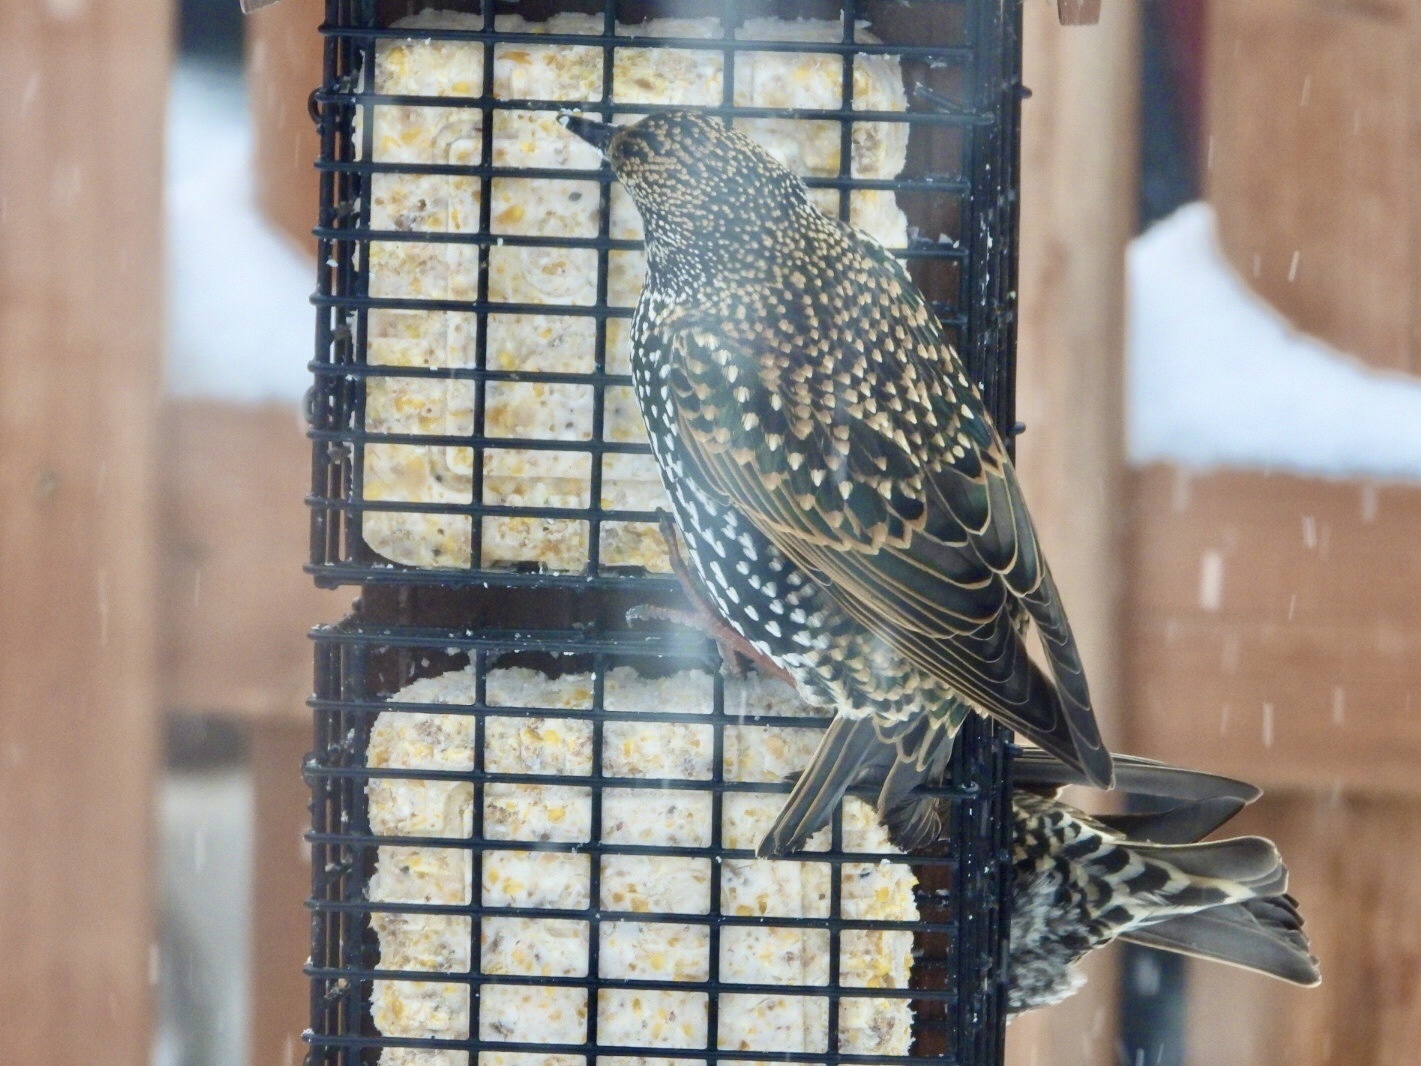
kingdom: Animalia
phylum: Chordata
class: Aves
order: Passeriformes
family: Sturnidae
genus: Sturnus
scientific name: Sturnus vulgaris
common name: Common starling
